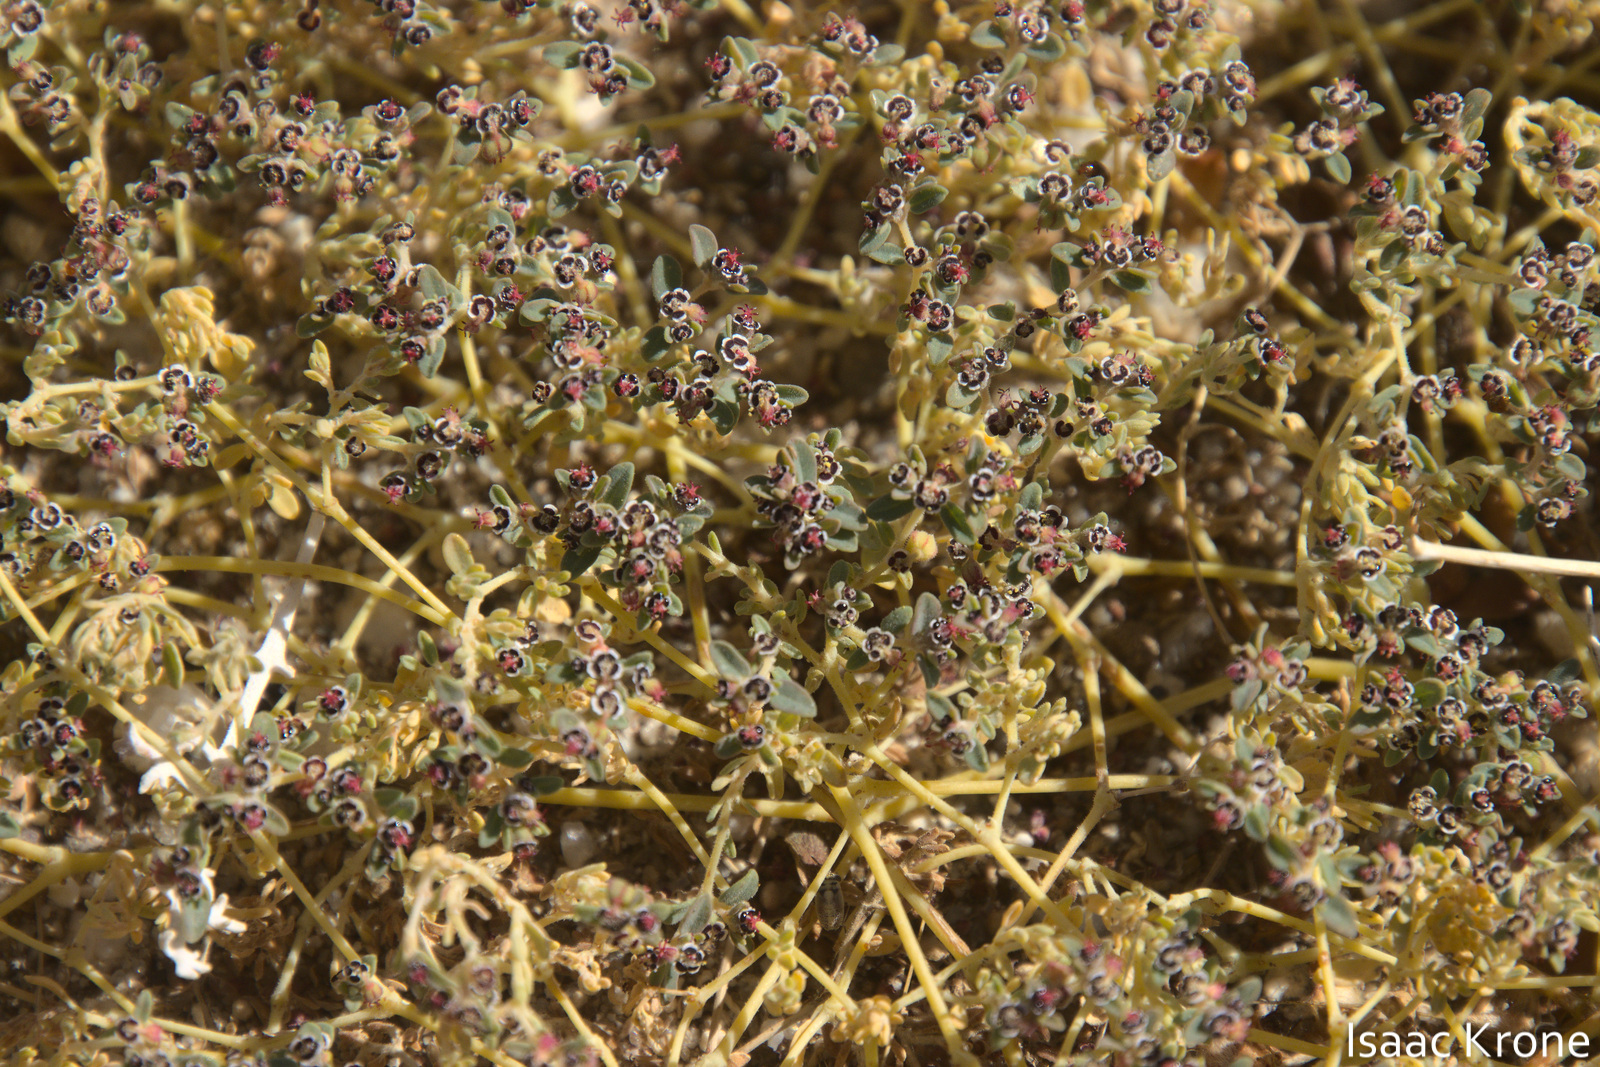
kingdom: Plantae
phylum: Tracheophyta
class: Magnoliopsida
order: Malpighiales
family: Euphorbiaceae
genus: Euphorbia
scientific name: Euphorbia polycarpa
